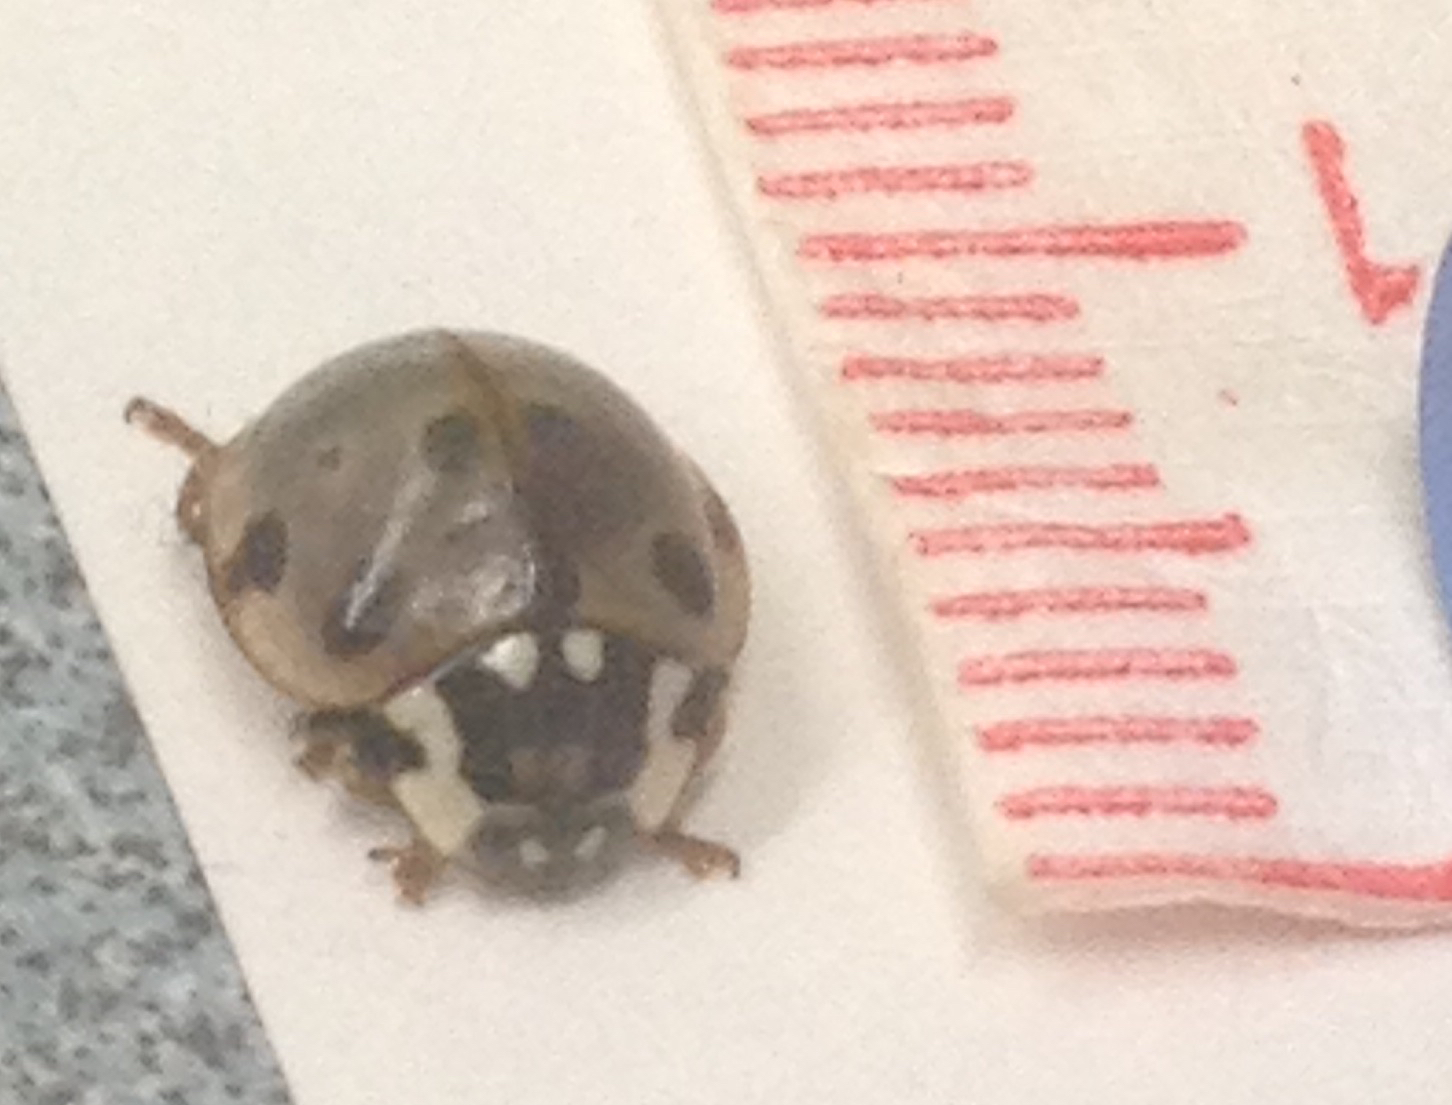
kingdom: Animalia
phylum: Arthropoda
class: Insecta
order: Coleoptera
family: Coccinellidae
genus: Anatis
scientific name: Anatis labiculata
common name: Fifteen-spotted lady beetle
